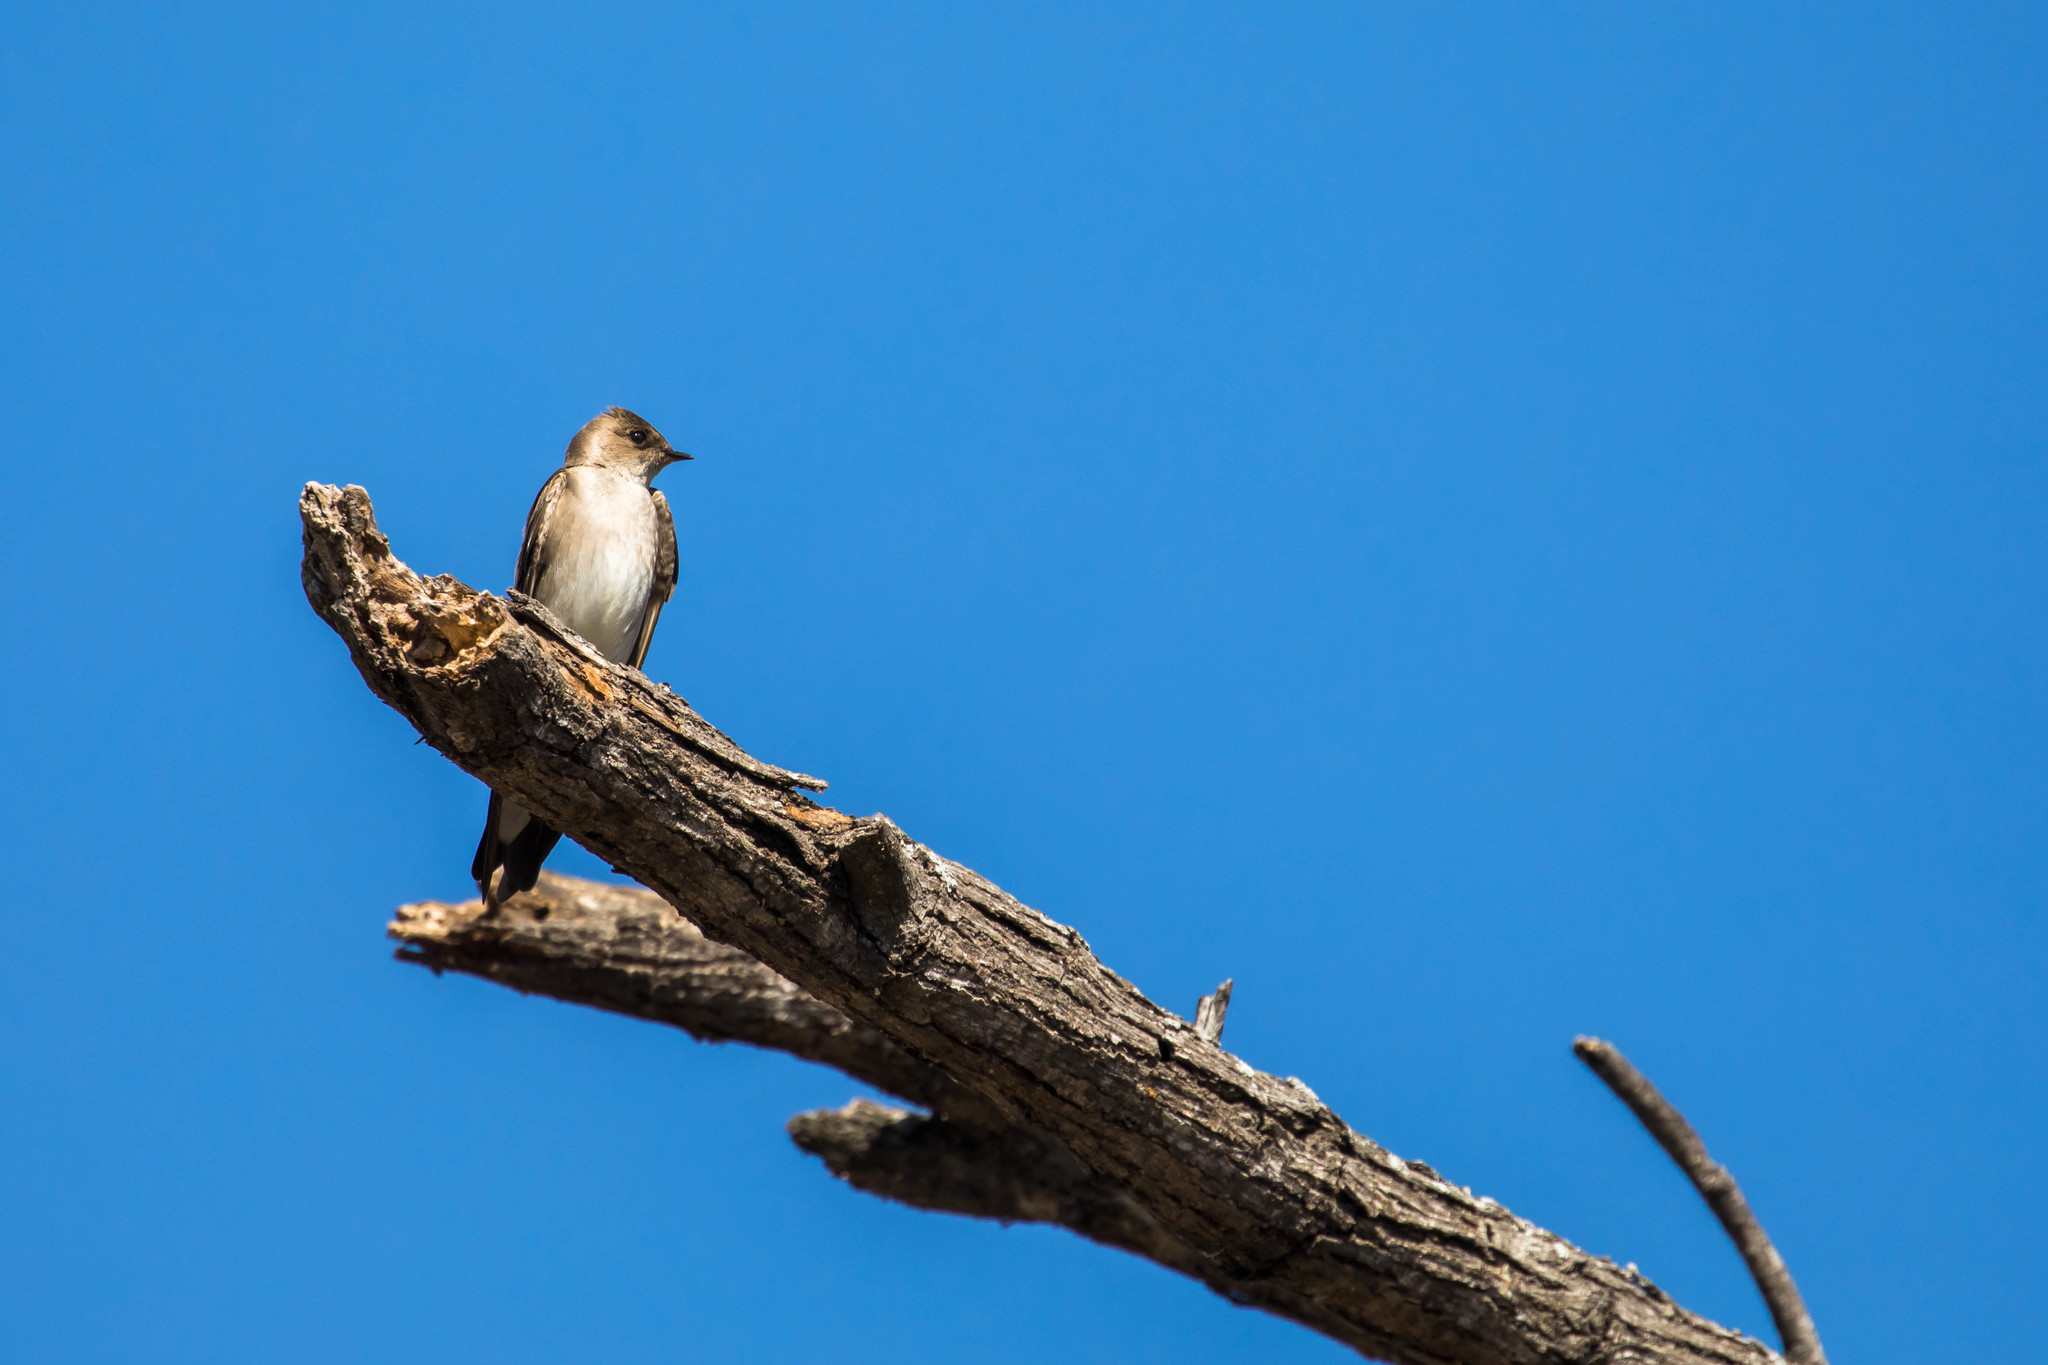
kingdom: Animalia
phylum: Chordata
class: Aves
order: Passeriformes
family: Hirundinidae
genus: Stelgidopteryx
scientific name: Stelgidopteryx serripennis
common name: Northern rough-winged swallow
